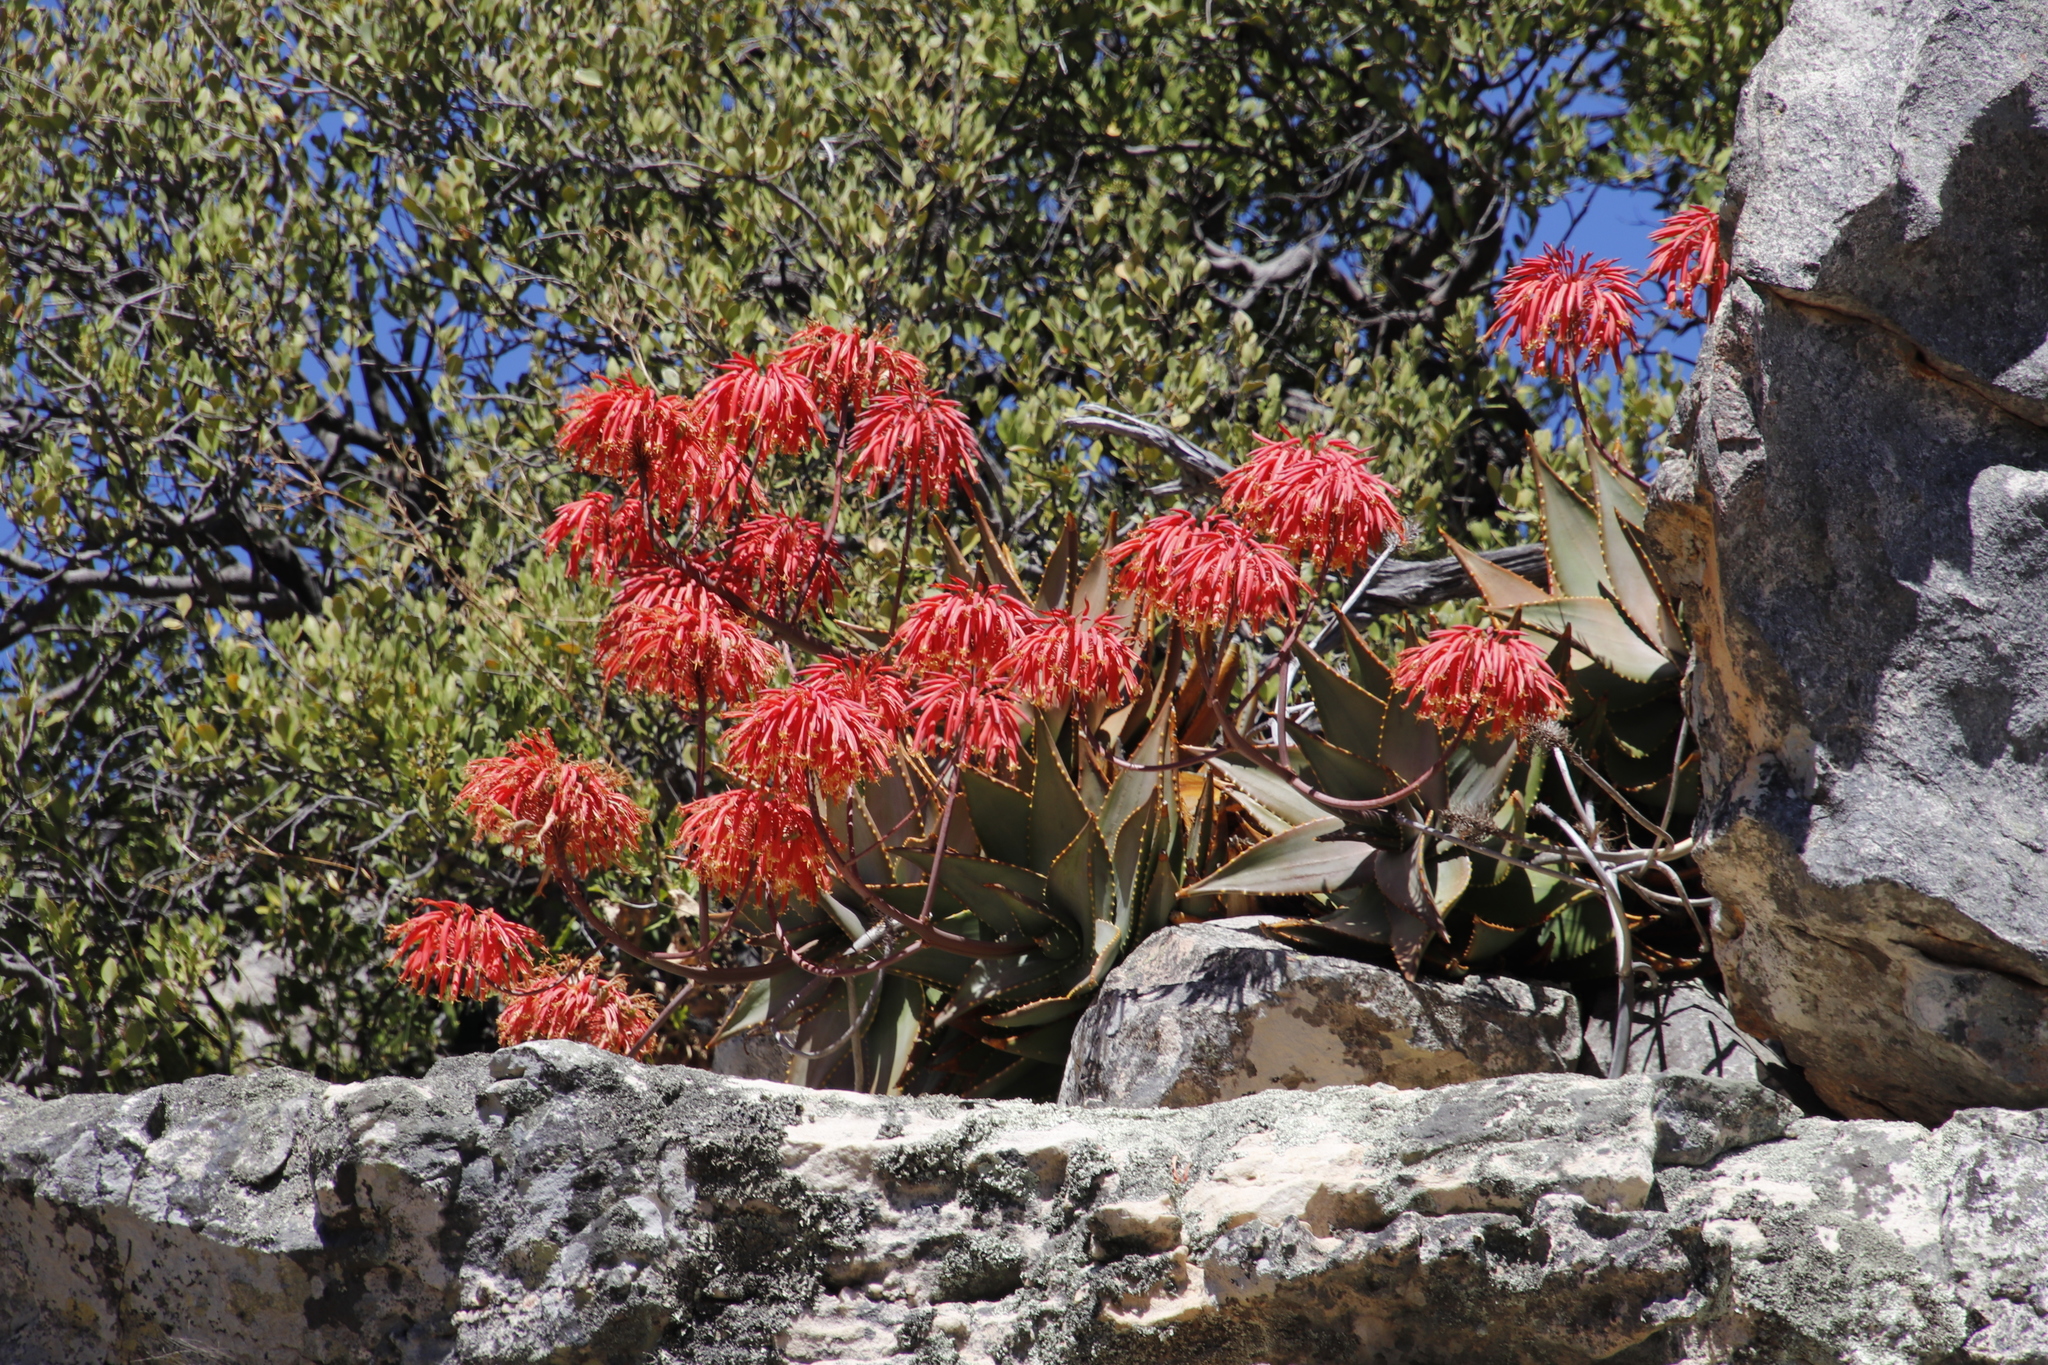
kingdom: Plantae
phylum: Tracheophyta
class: Liliopsida
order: Asparagales
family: Asphodelaceae
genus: Aloe
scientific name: Aloe perfoliata
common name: Mitra aloe
